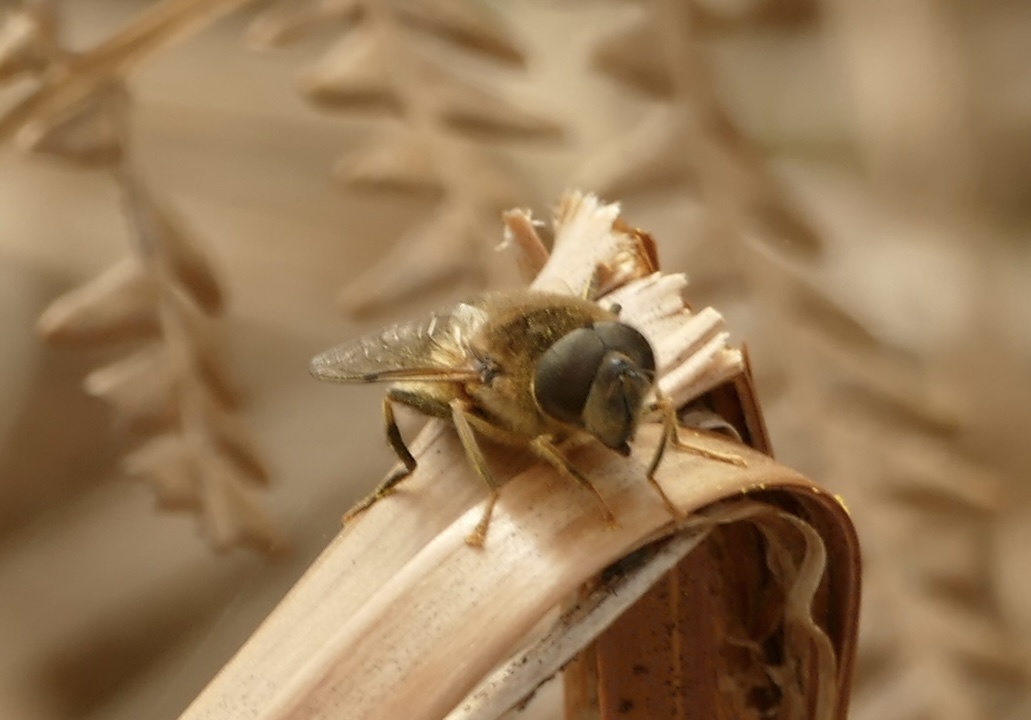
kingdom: Animalia
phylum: Arthropoda
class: Insecta
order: Diptera
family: Syrphidae
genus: Eristalis
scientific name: Eristalis pertinax
